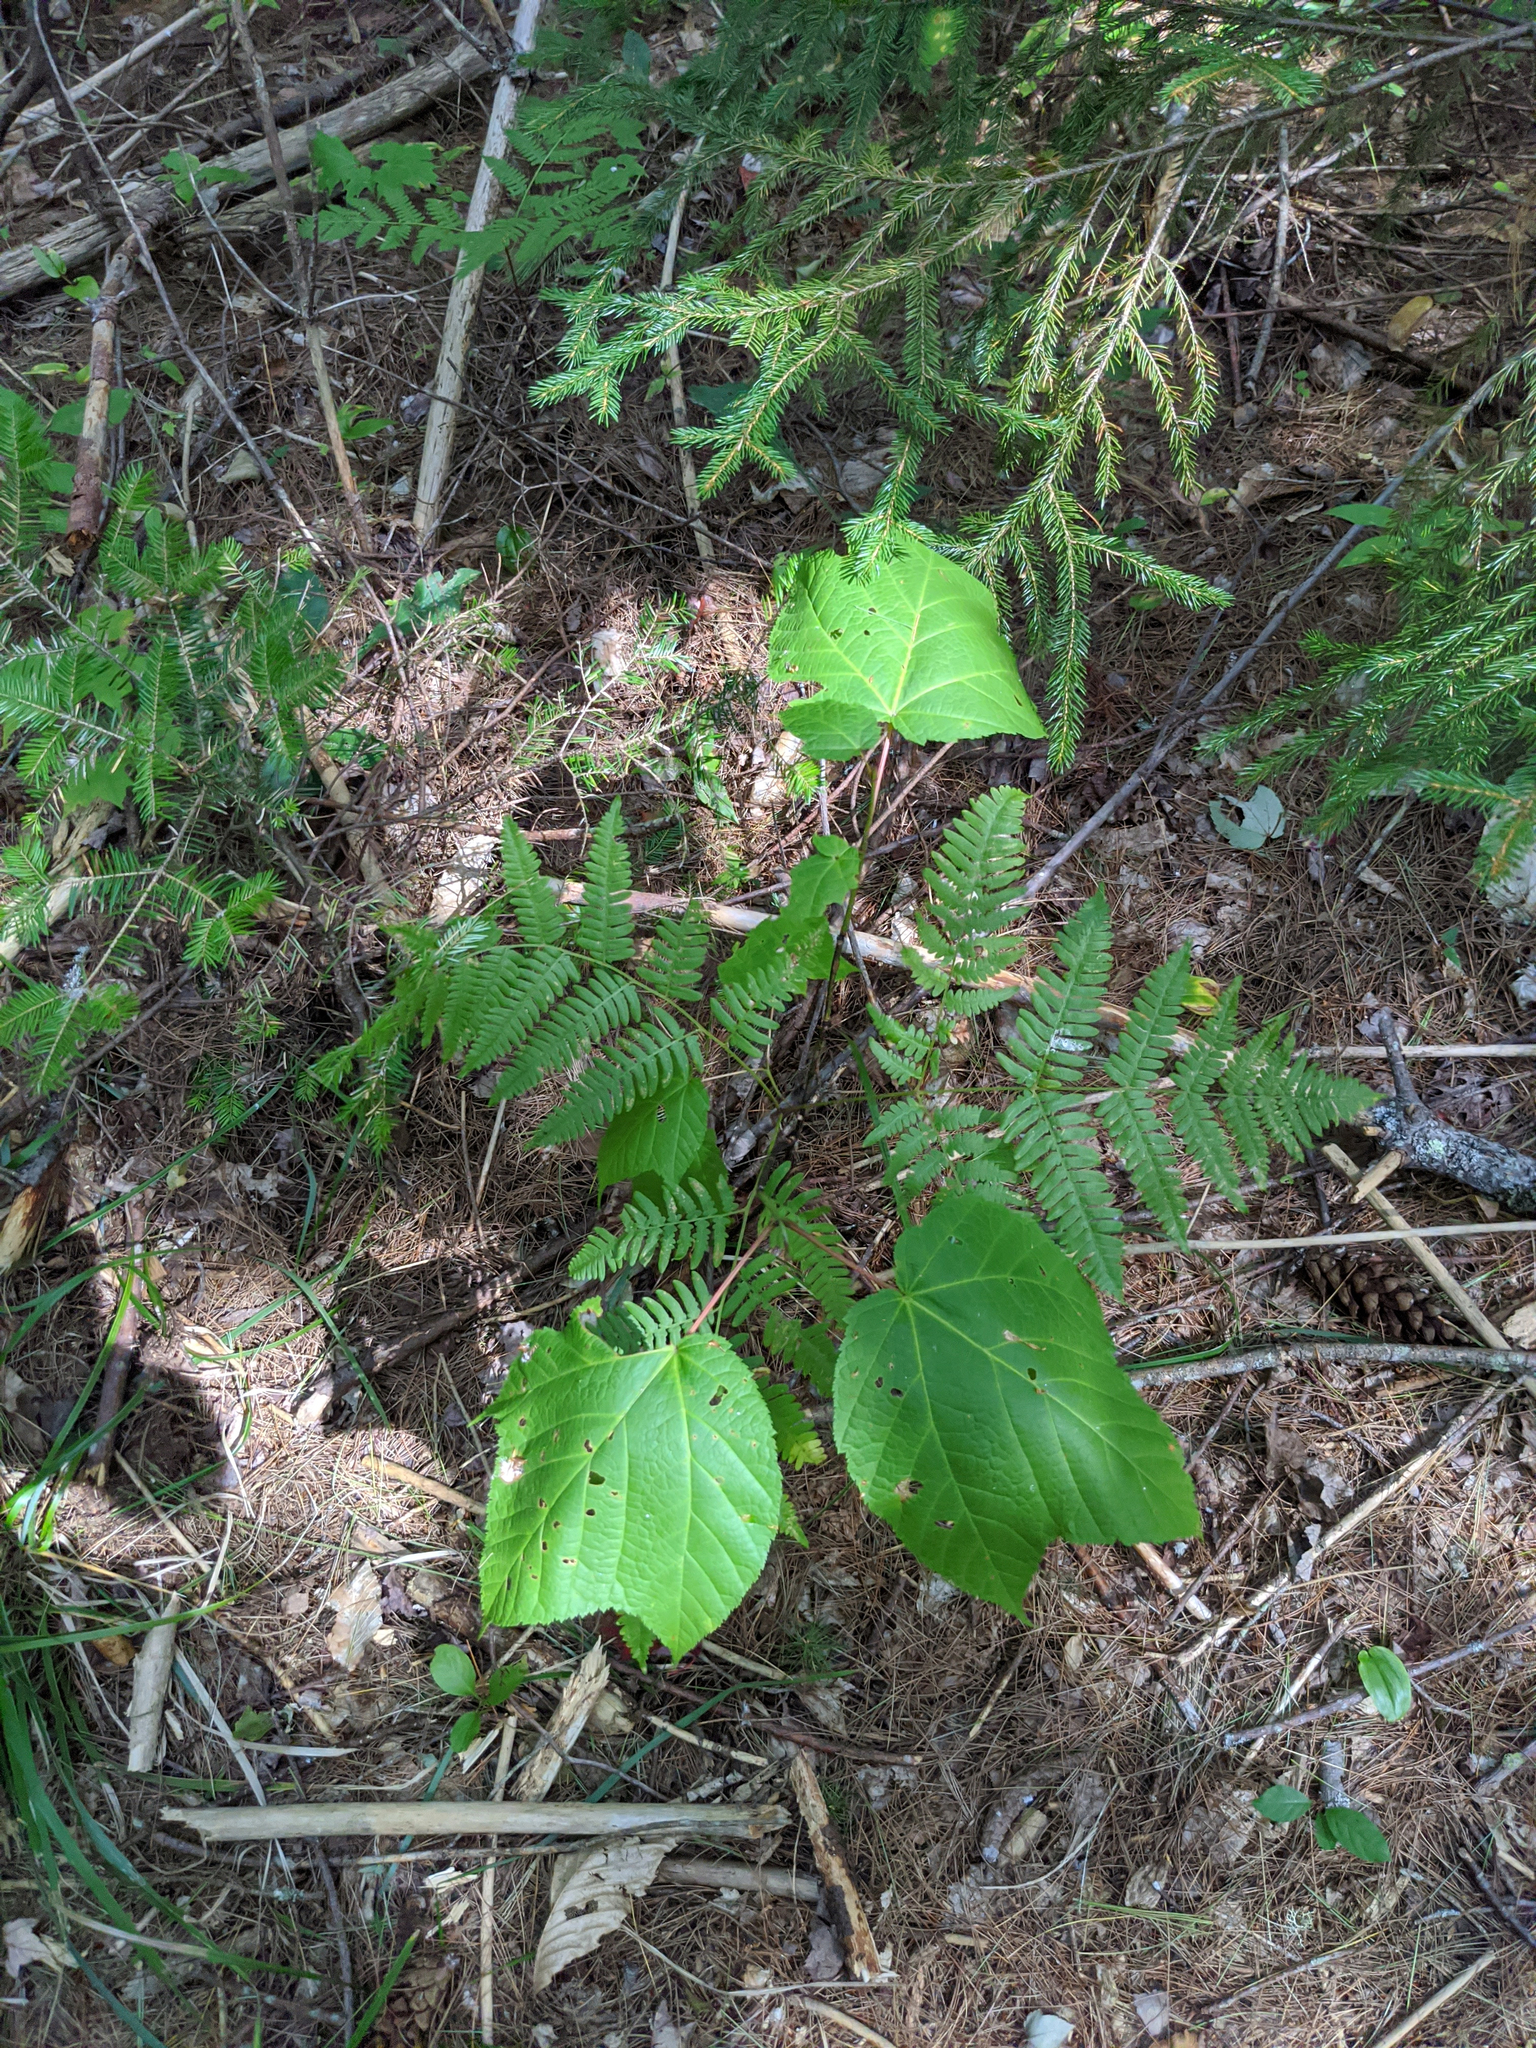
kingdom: Plantae
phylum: Tracheophyta
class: Magnoliopsida
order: Sapindales
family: Sapindaceae
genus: Acer
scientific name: Acer pensylvanicum
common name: Moosewood
